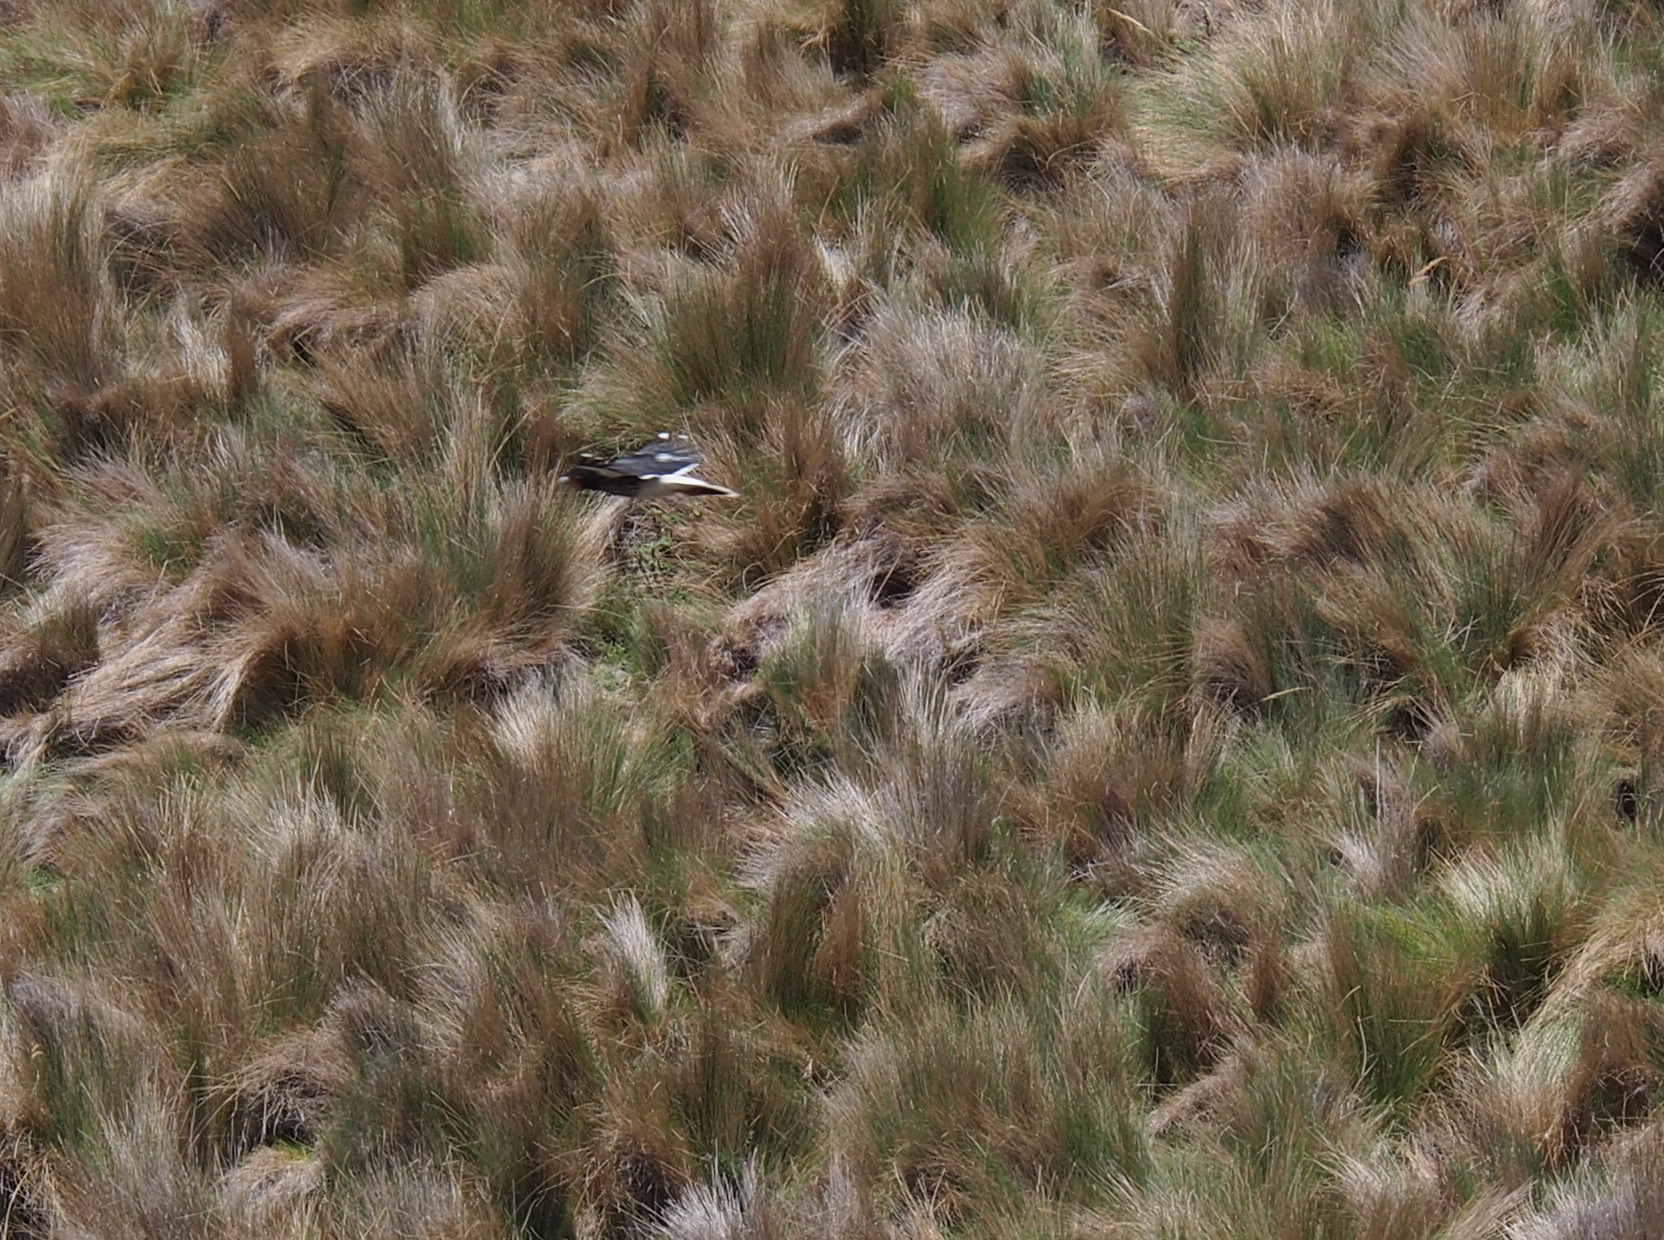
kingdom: Animalia
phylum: Chordata
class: Aves
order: Falconiformes
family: Falconidae
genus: Daptrius
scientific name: Daptrius
